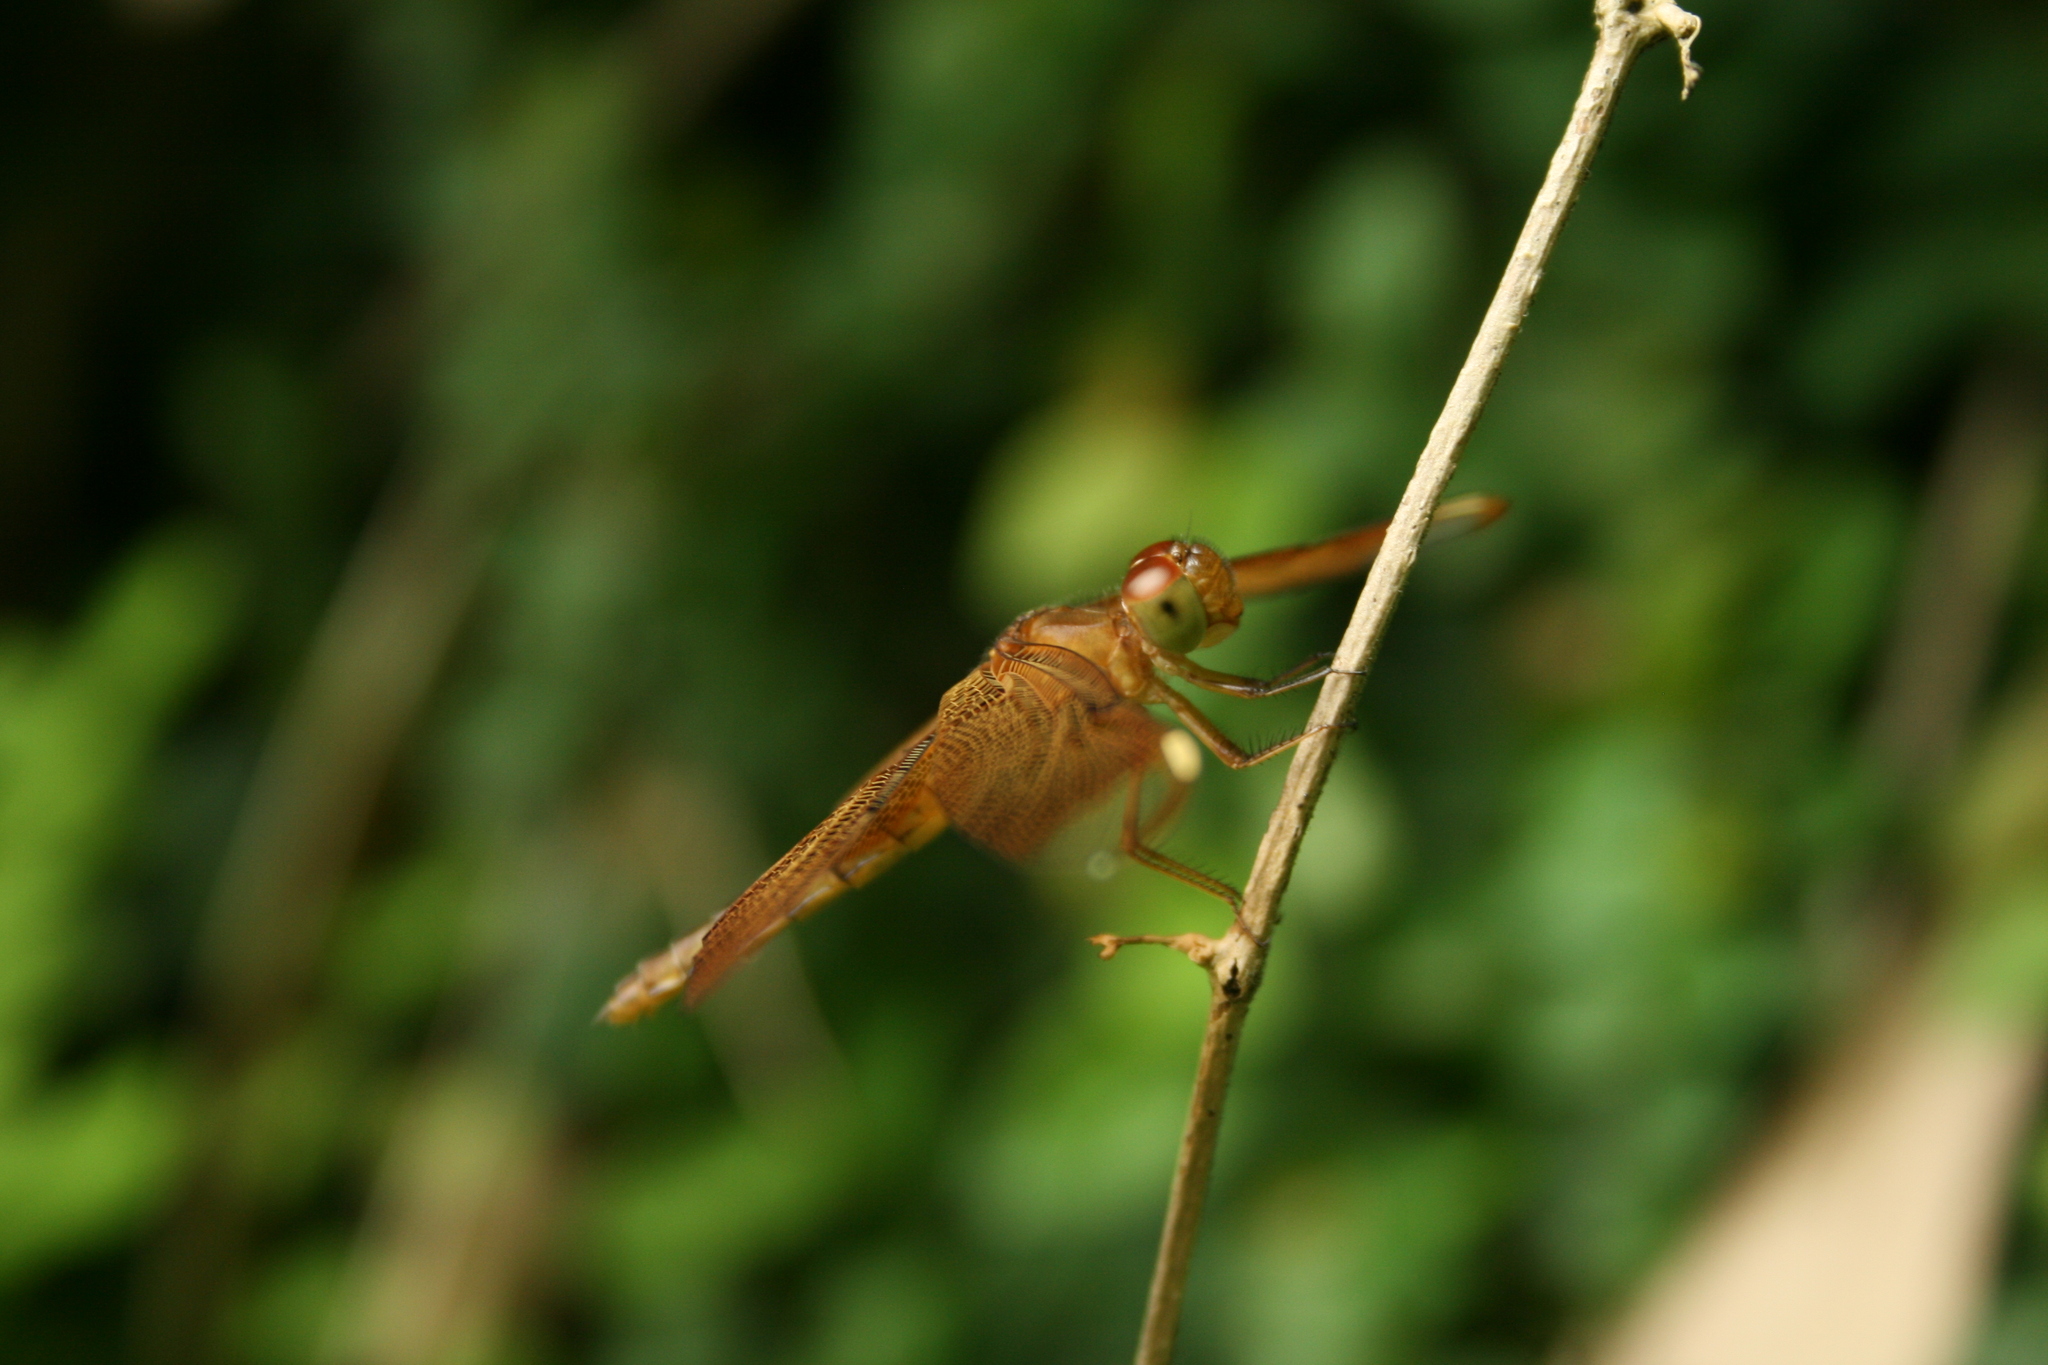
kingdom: Animalia
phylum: Arthropoda
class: Insecta
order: Odonata
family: Libellulidae
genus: Neurothemis
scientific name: Neurothemis fulvia
